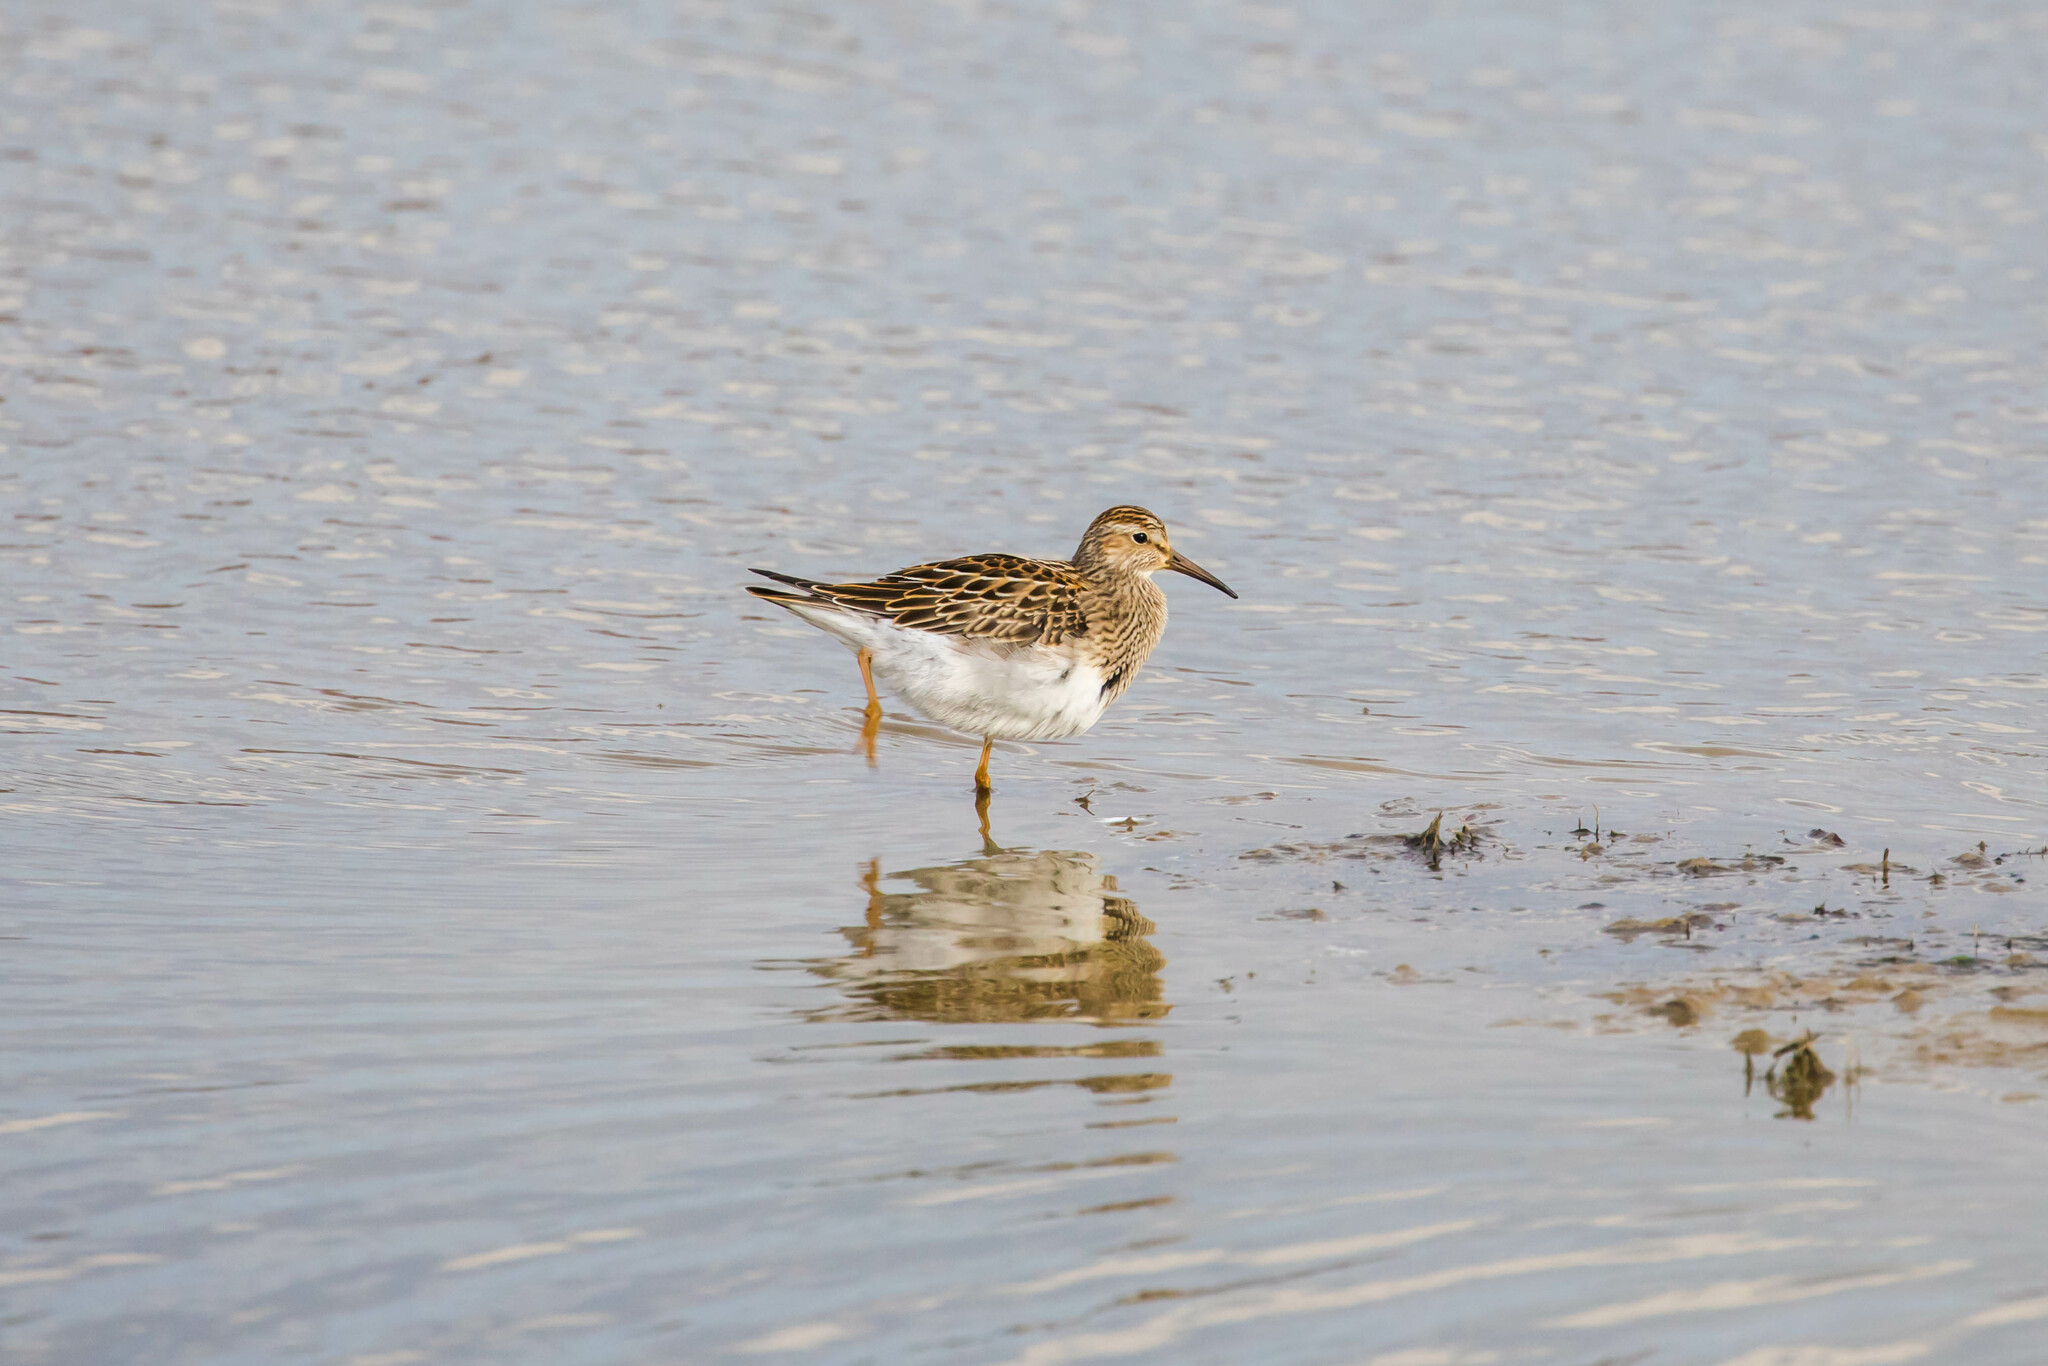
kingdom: Animalia
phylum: Chordata
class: Aves
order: Charadriiformes
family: Scolopacidae
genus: Calidris
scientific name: Calidris melanotos
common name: Pectoral sandpiper
